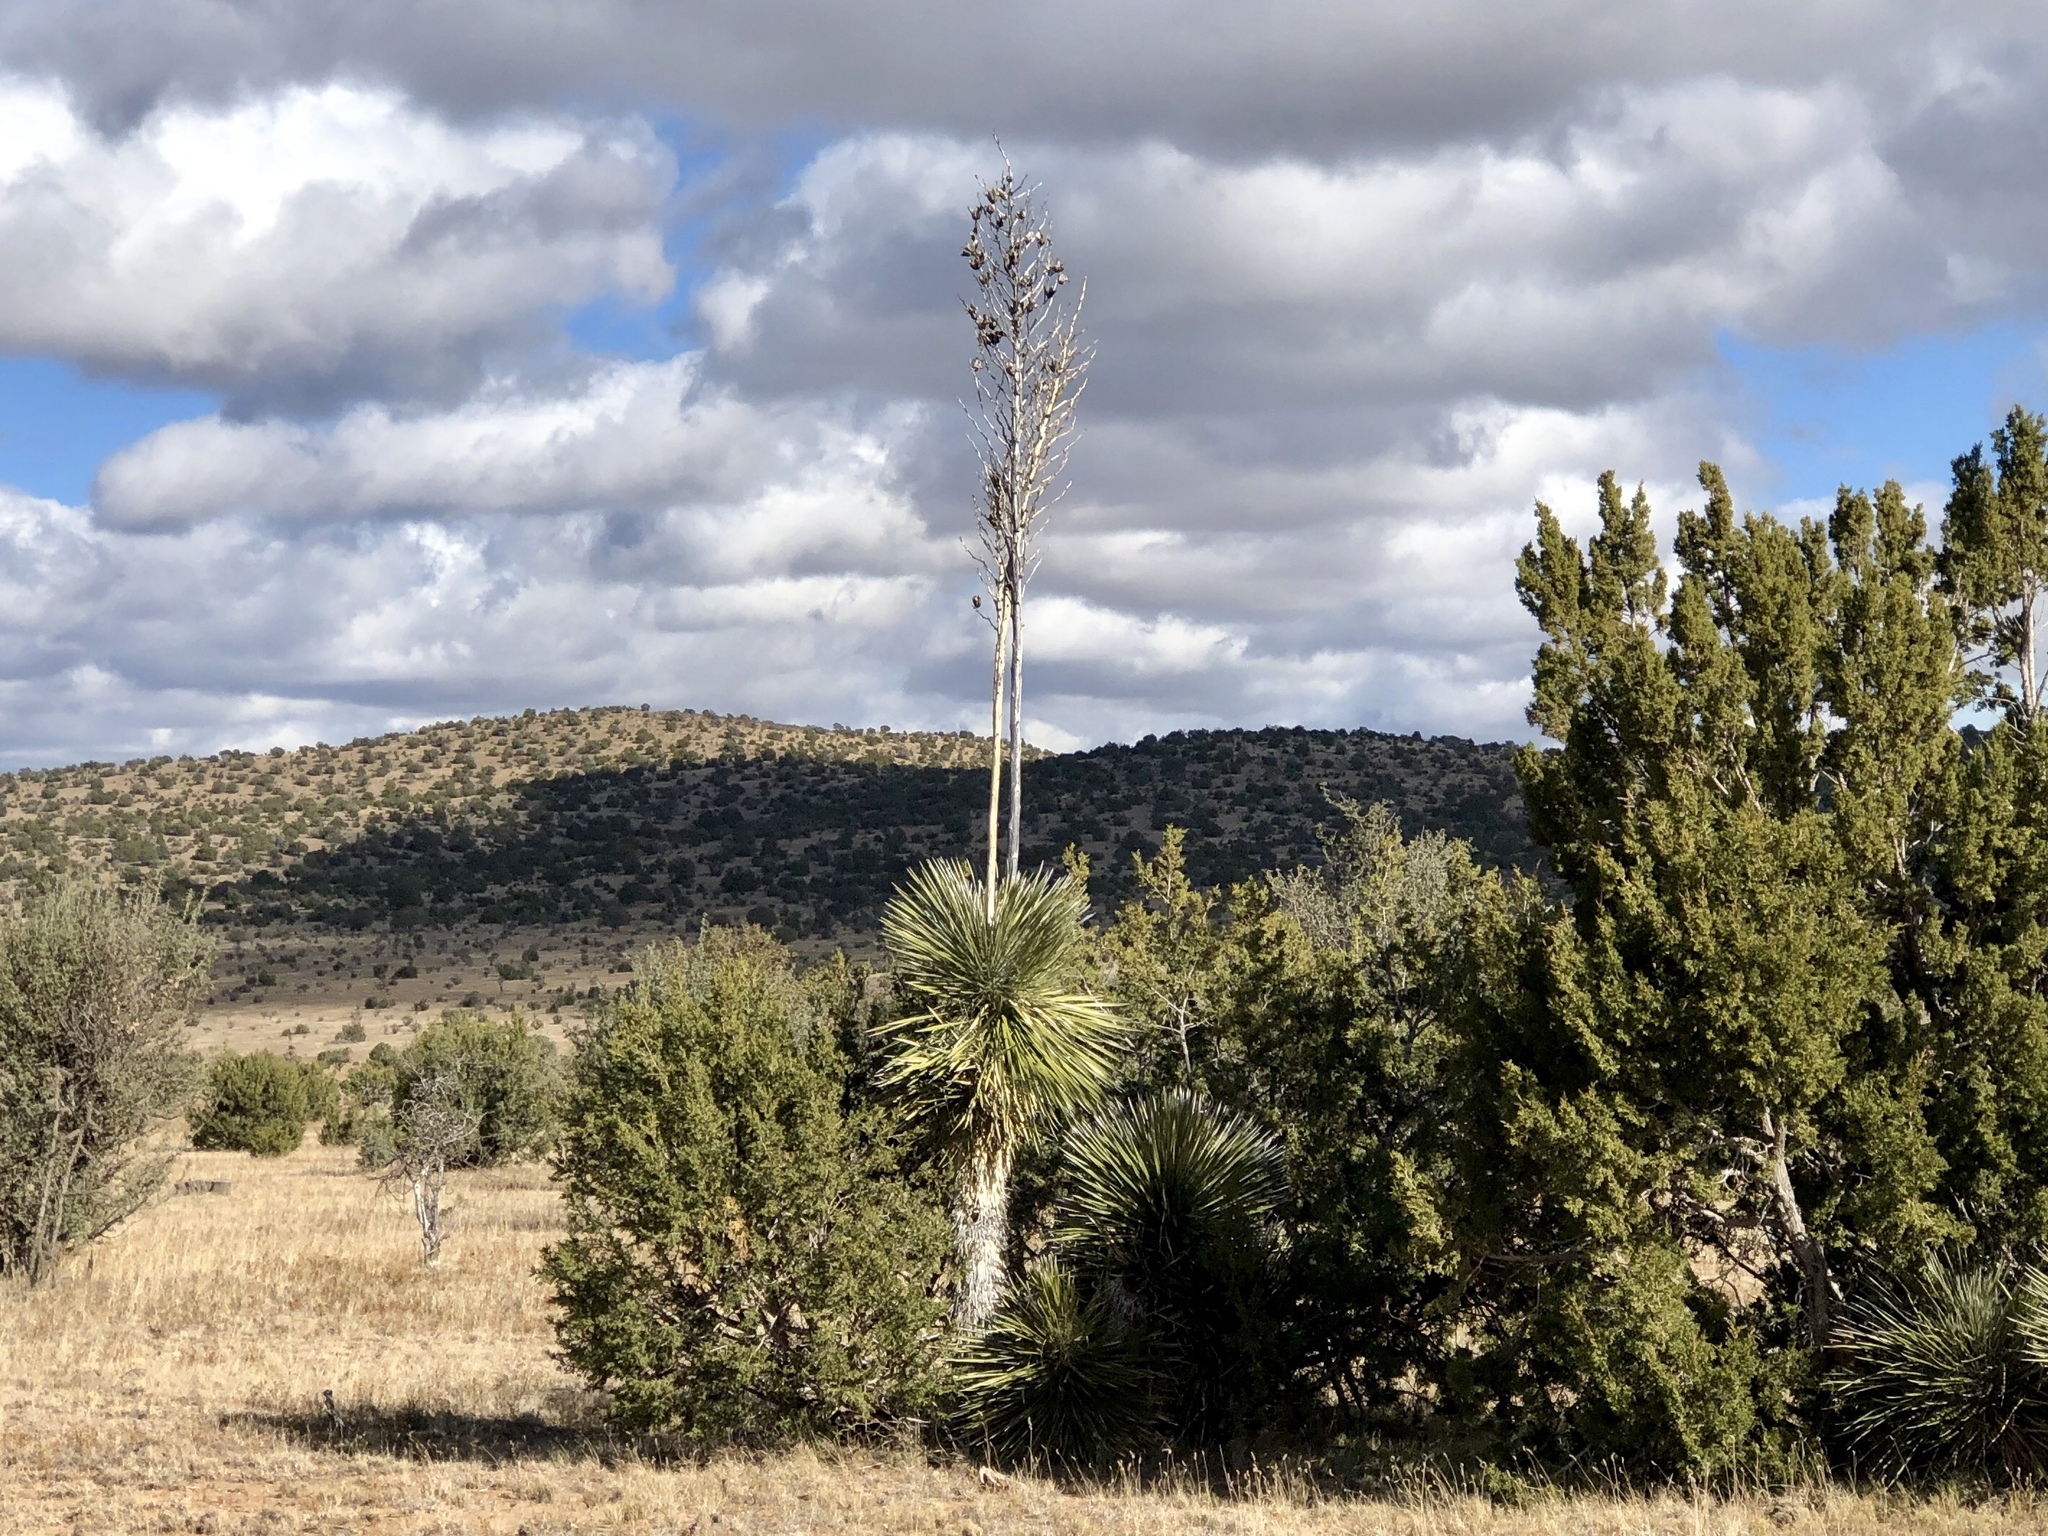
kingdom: Plantae
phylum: Tracheophyta
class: Liliopsida
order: Asparagales
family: Asparagaceae
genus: Yucca
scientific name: Yucca elata
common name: Palmella
